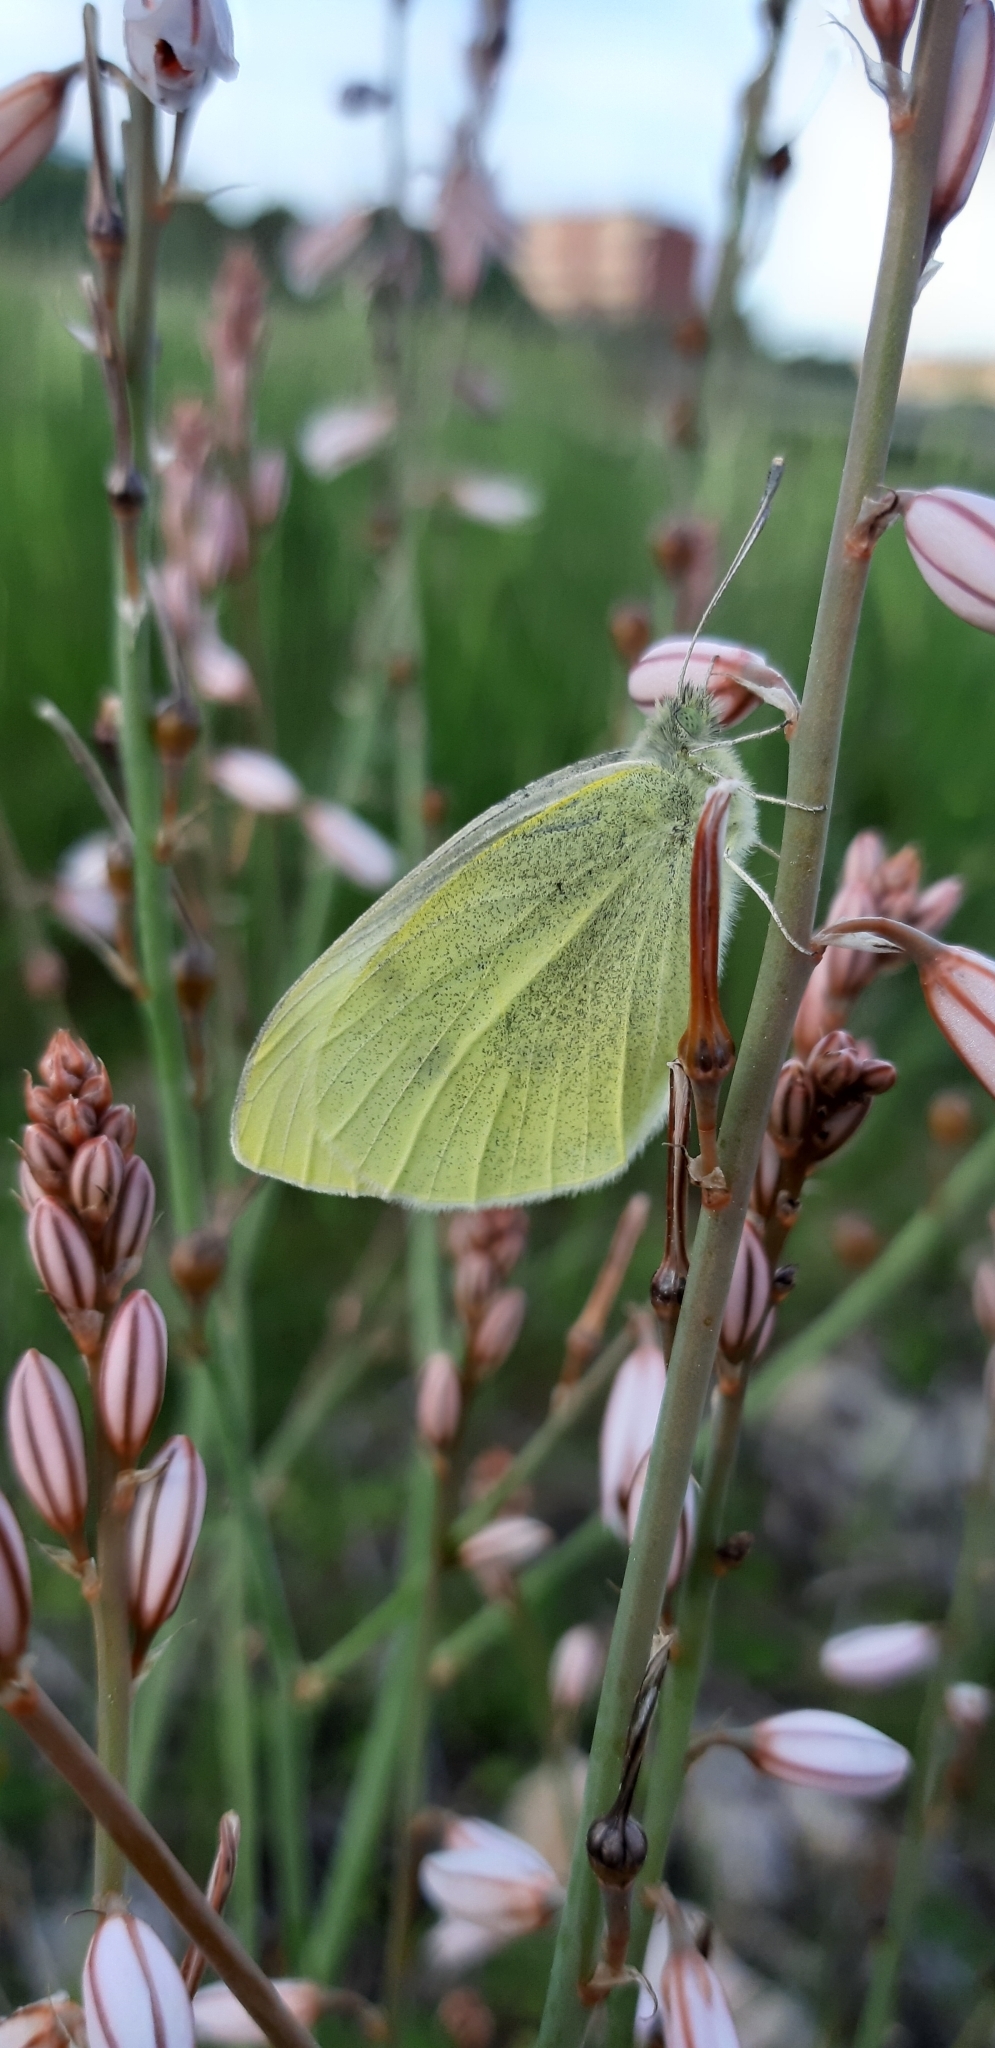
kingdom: Animalia
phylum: Arthropoda
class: Insecta
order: Lepidoptera
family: Pieridae
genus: Pieris
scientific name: Pieris rapae
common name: Small white
